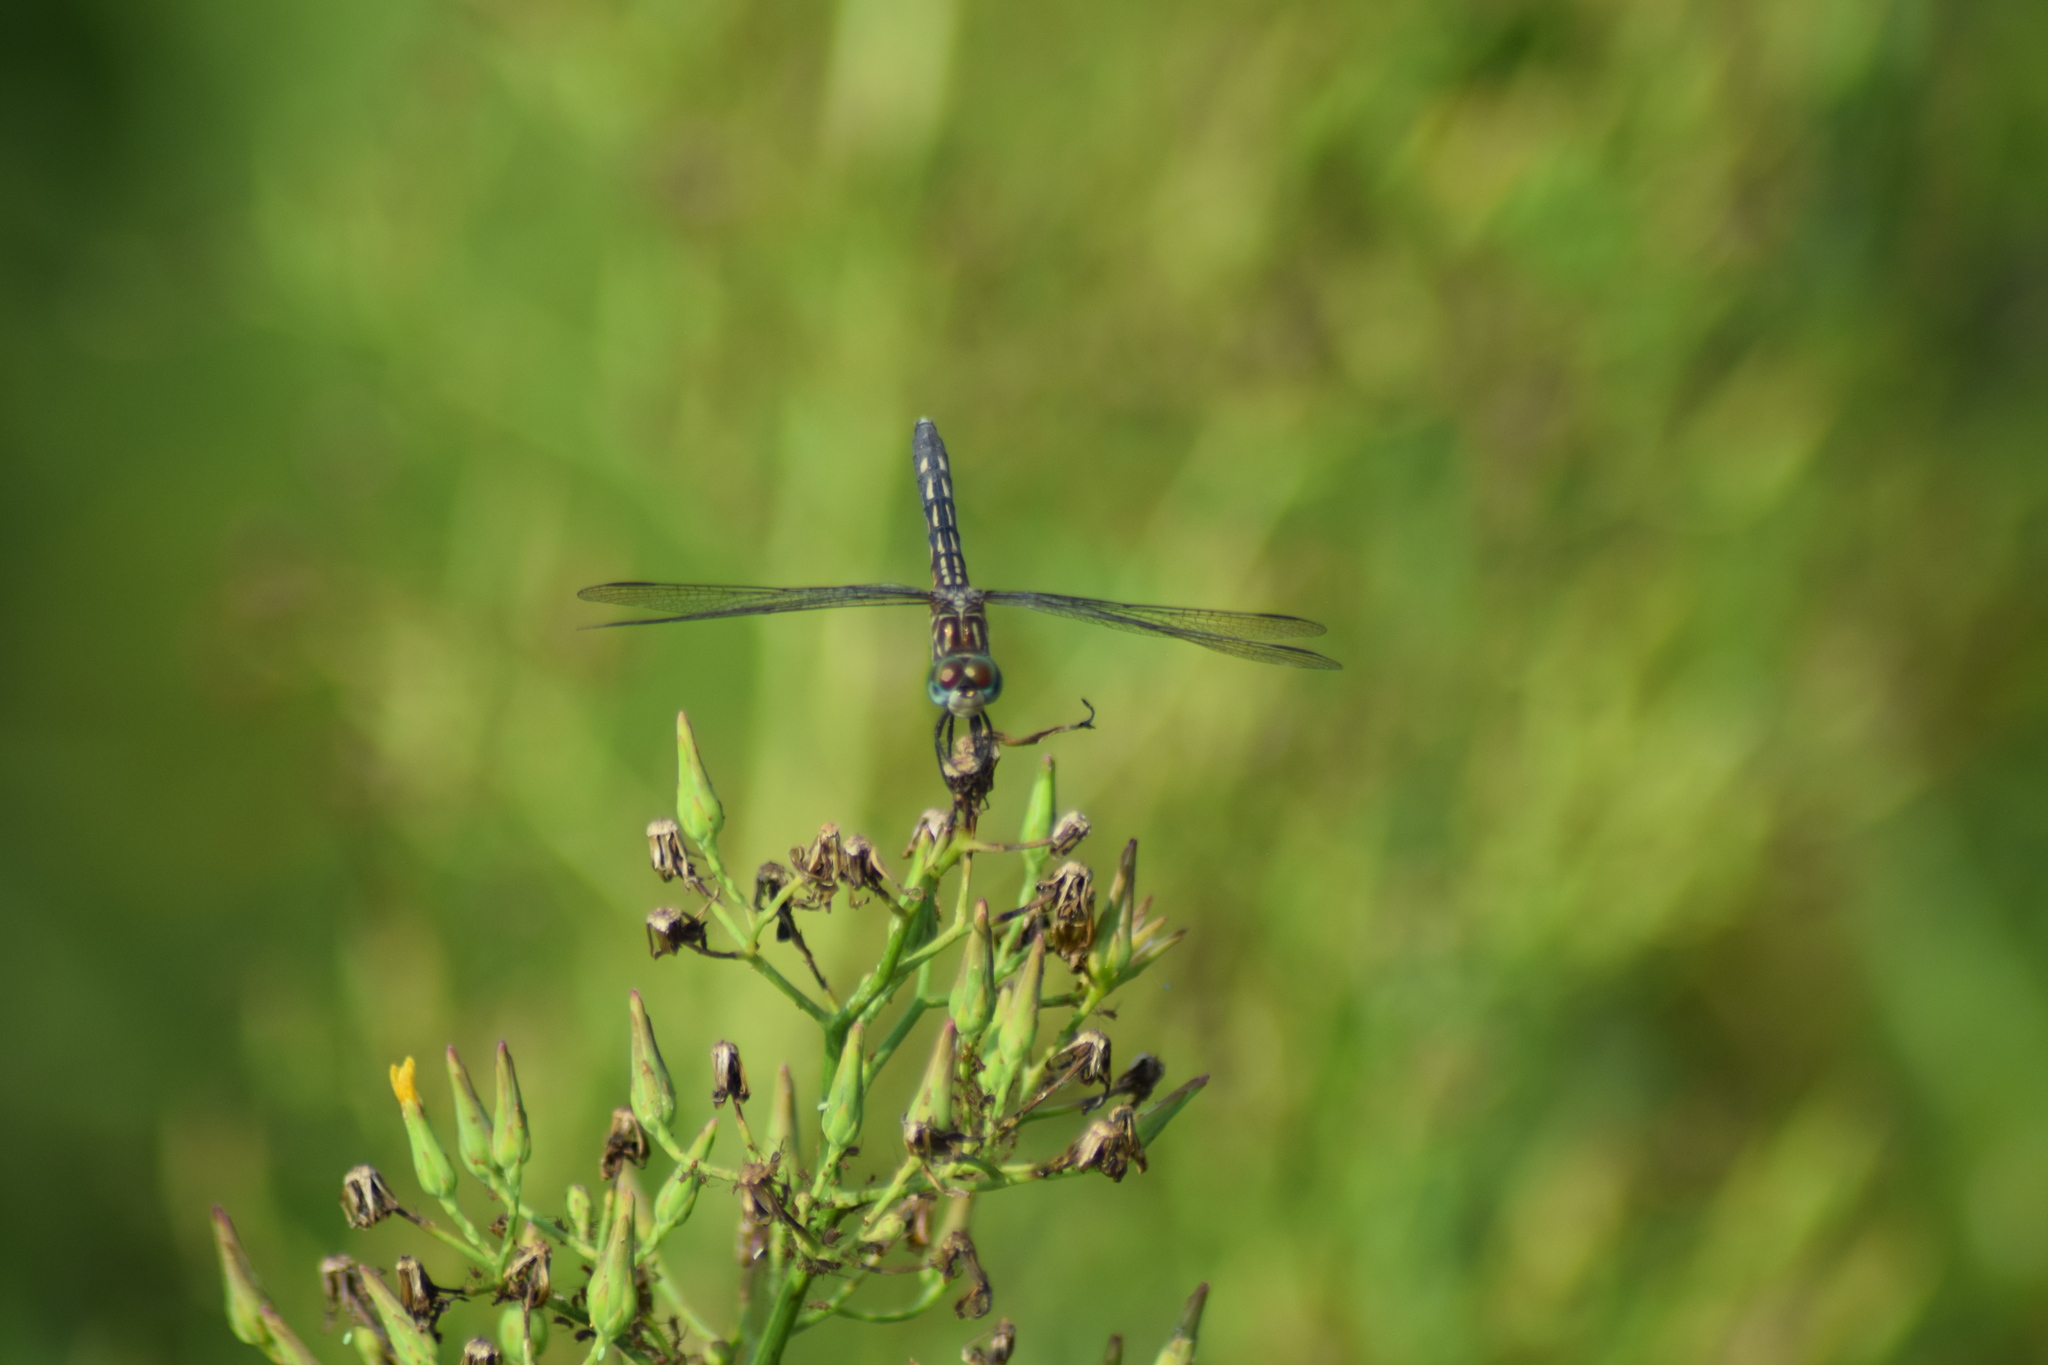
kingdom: Animalia
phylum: Arthropoda
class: Insecta
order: Odonata
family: Libellulidae
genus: Pachydiplax
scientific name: Pachydiplax longipennis
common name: Blue dasher
